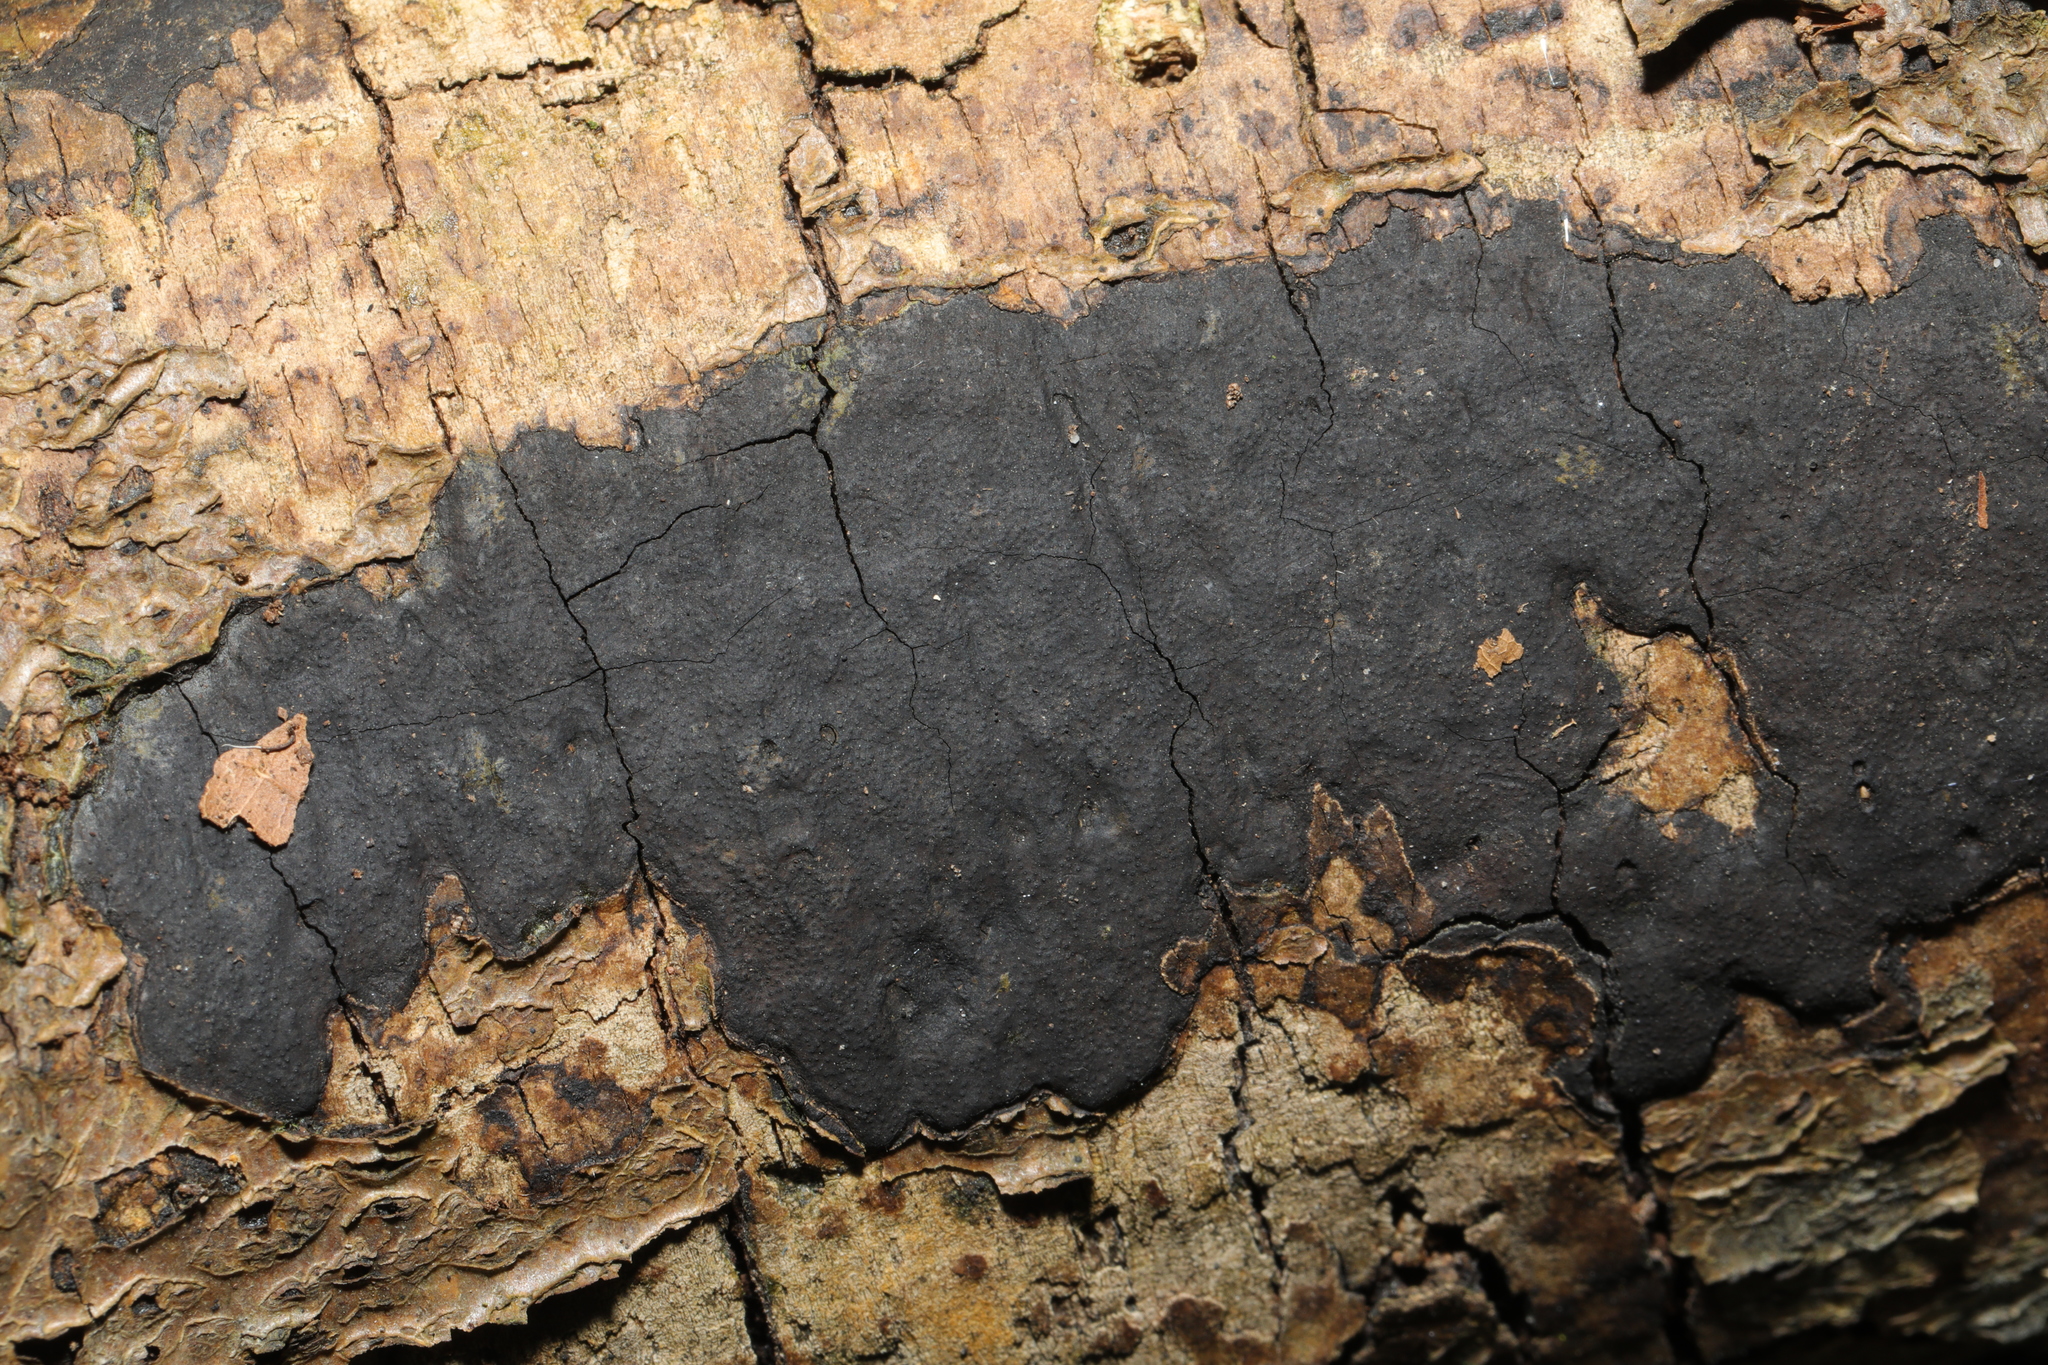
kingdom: Fungi
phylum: Ascomycota
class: Sordariomycetes
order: Xylariales
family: Graphostromataceae
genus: Biscogniauxia
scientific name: Biscogniauxia nummularia
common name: Beech tarcrust
